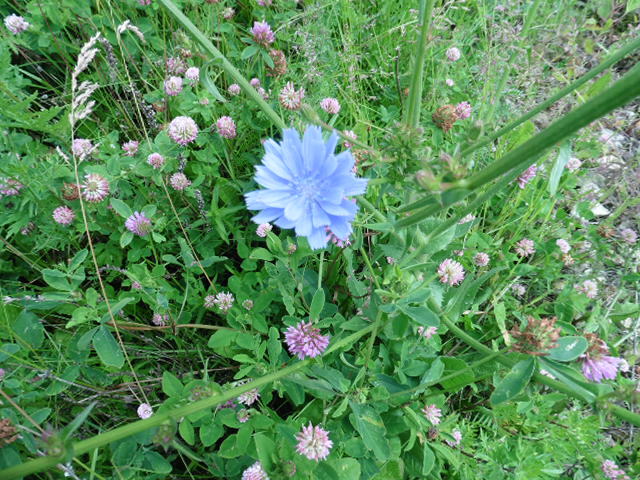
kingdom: Plantae
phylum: Tracheophyta
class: Magnoliopsida
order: Asterales
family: Asteraceae
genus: Cichorium
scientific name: Cichorium intybus
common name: Chicory
